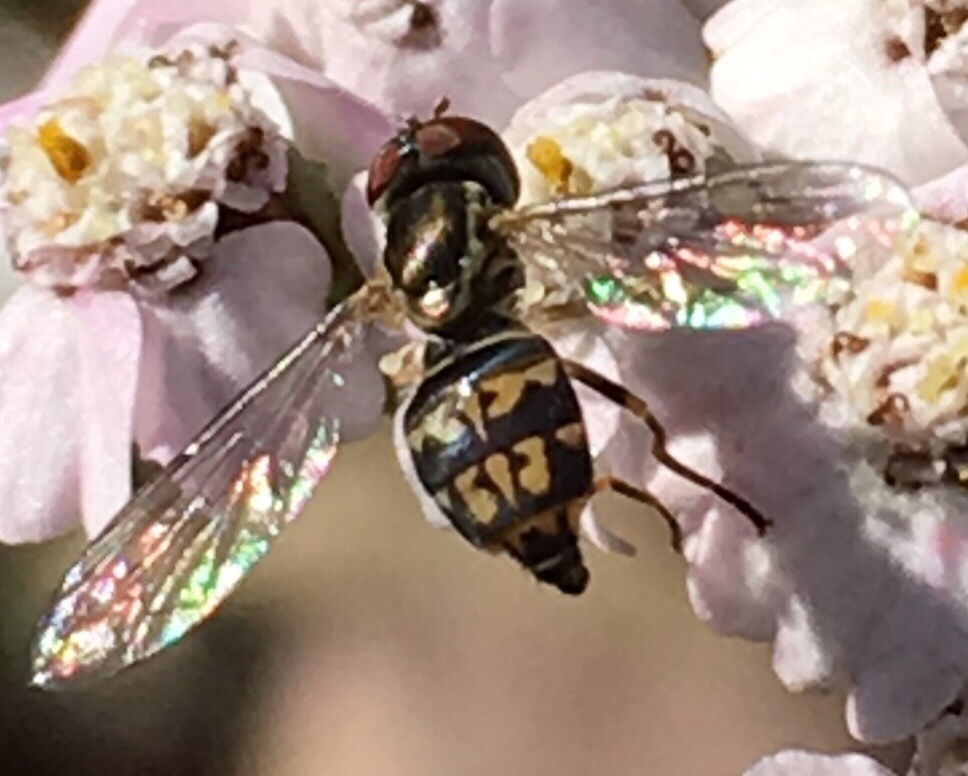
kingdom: Animalia
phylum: Arthropoda
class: Insecta
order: Diptera
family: Syrphidae
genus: Toxomerus
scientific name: Toxomerus geminatus
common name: Eastern calligrapher
